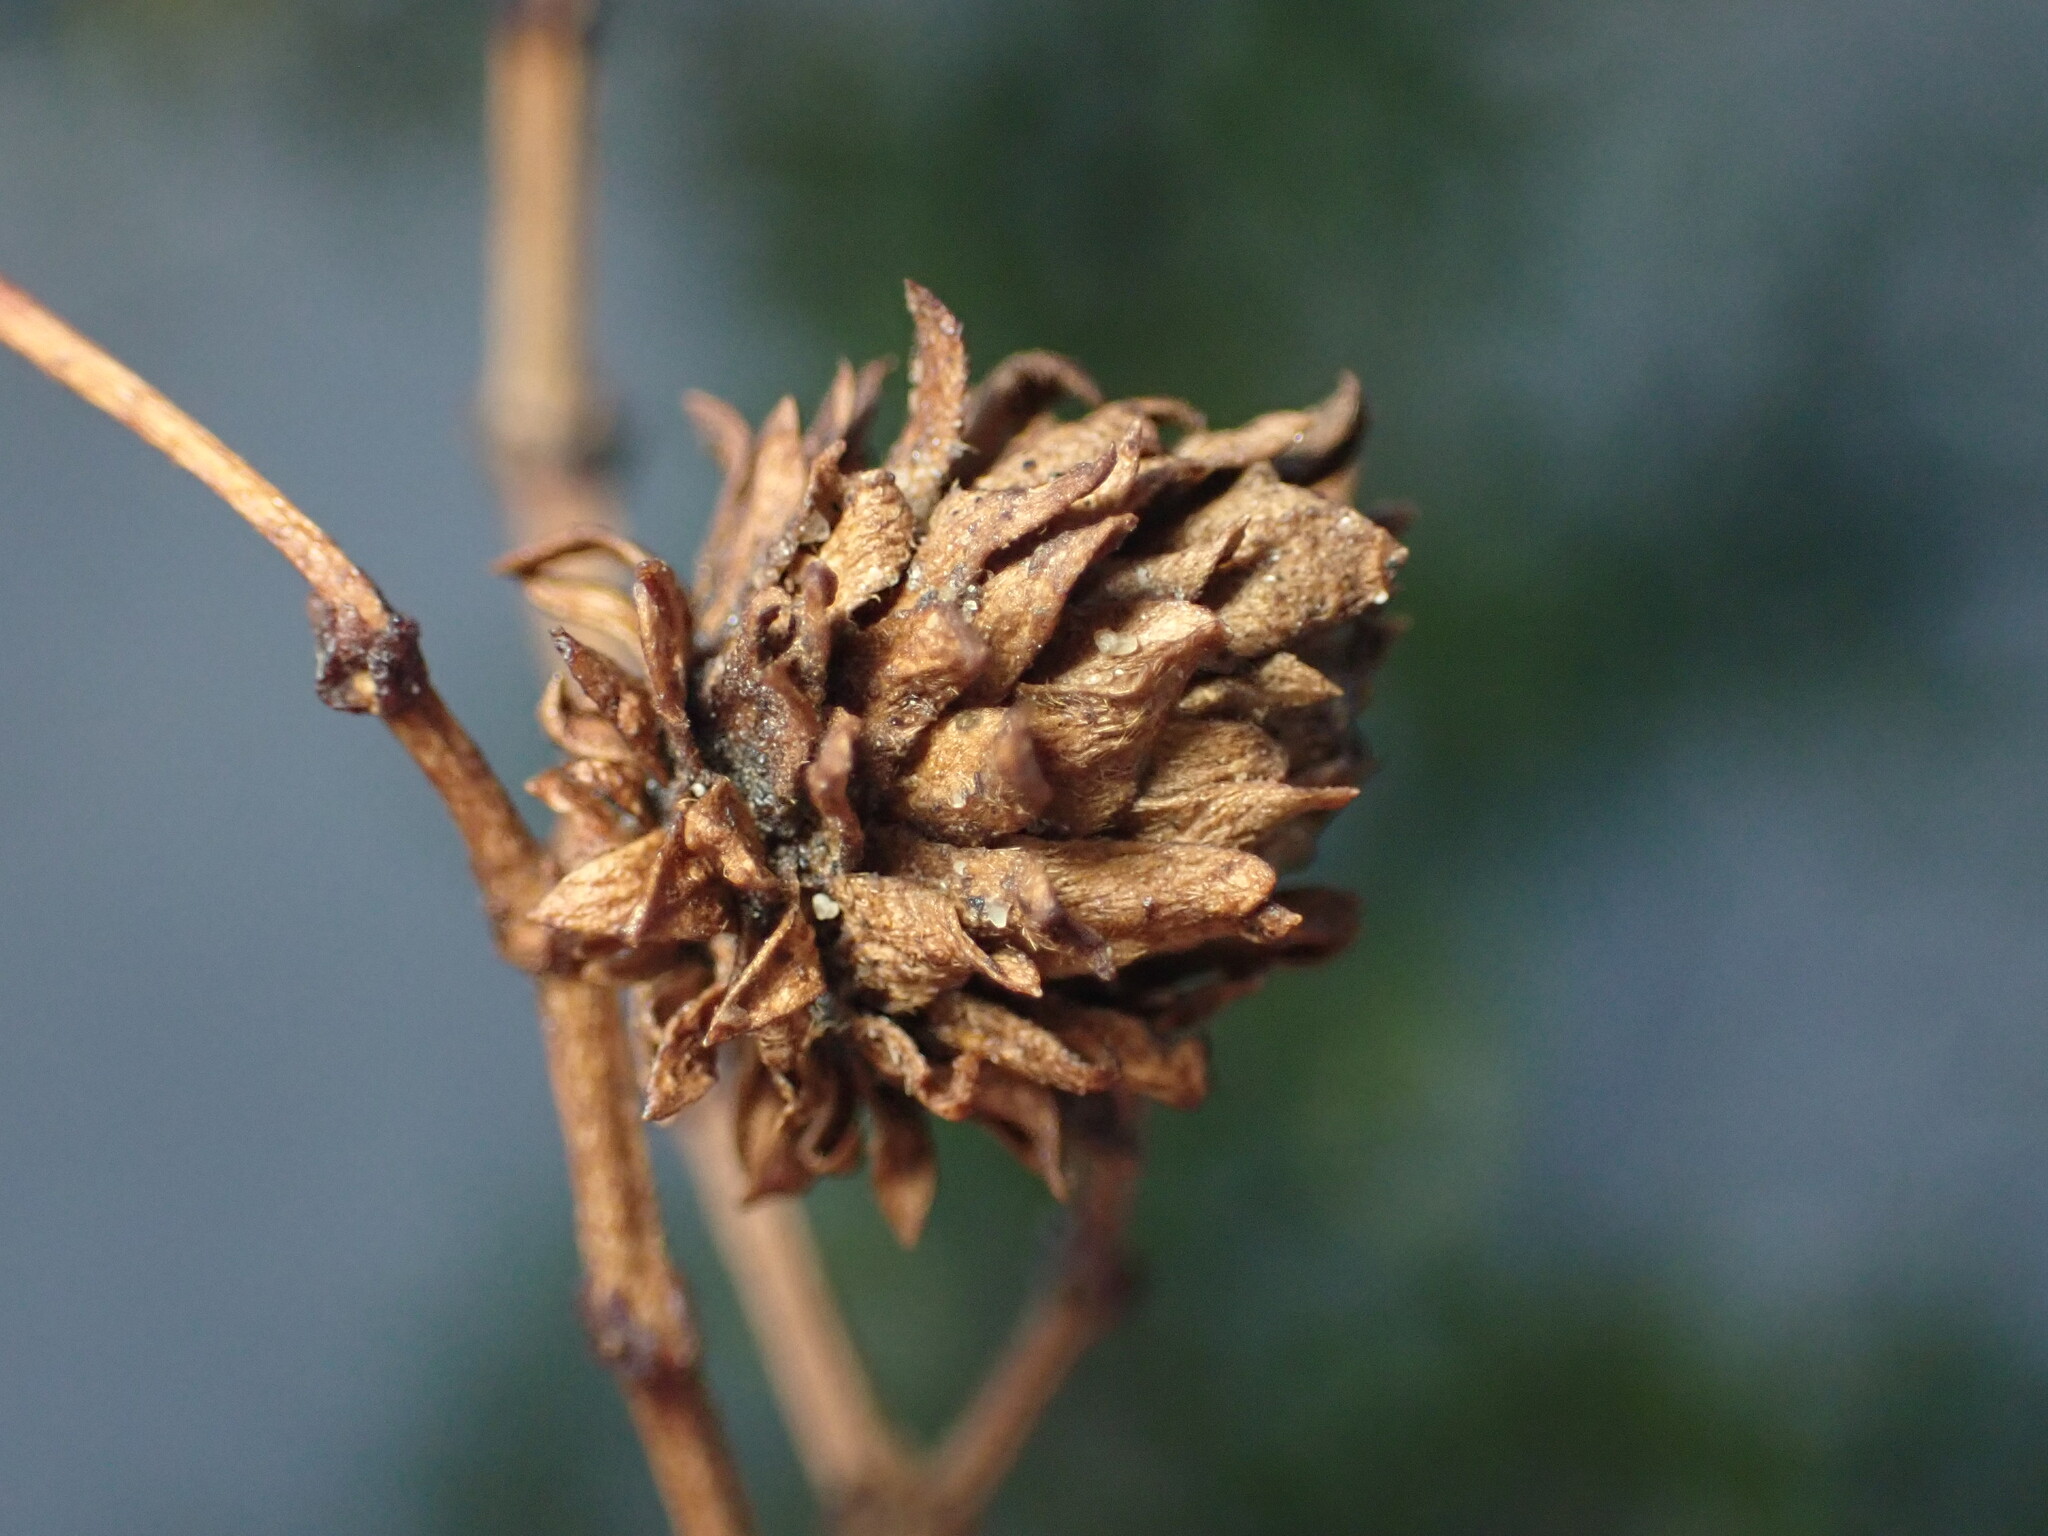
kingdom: Animalia
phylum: Arthropoda
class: Insecta
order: Diptera
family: Cecidomyiidae
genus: Asphondylia
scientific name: Asphondylia rosetta
